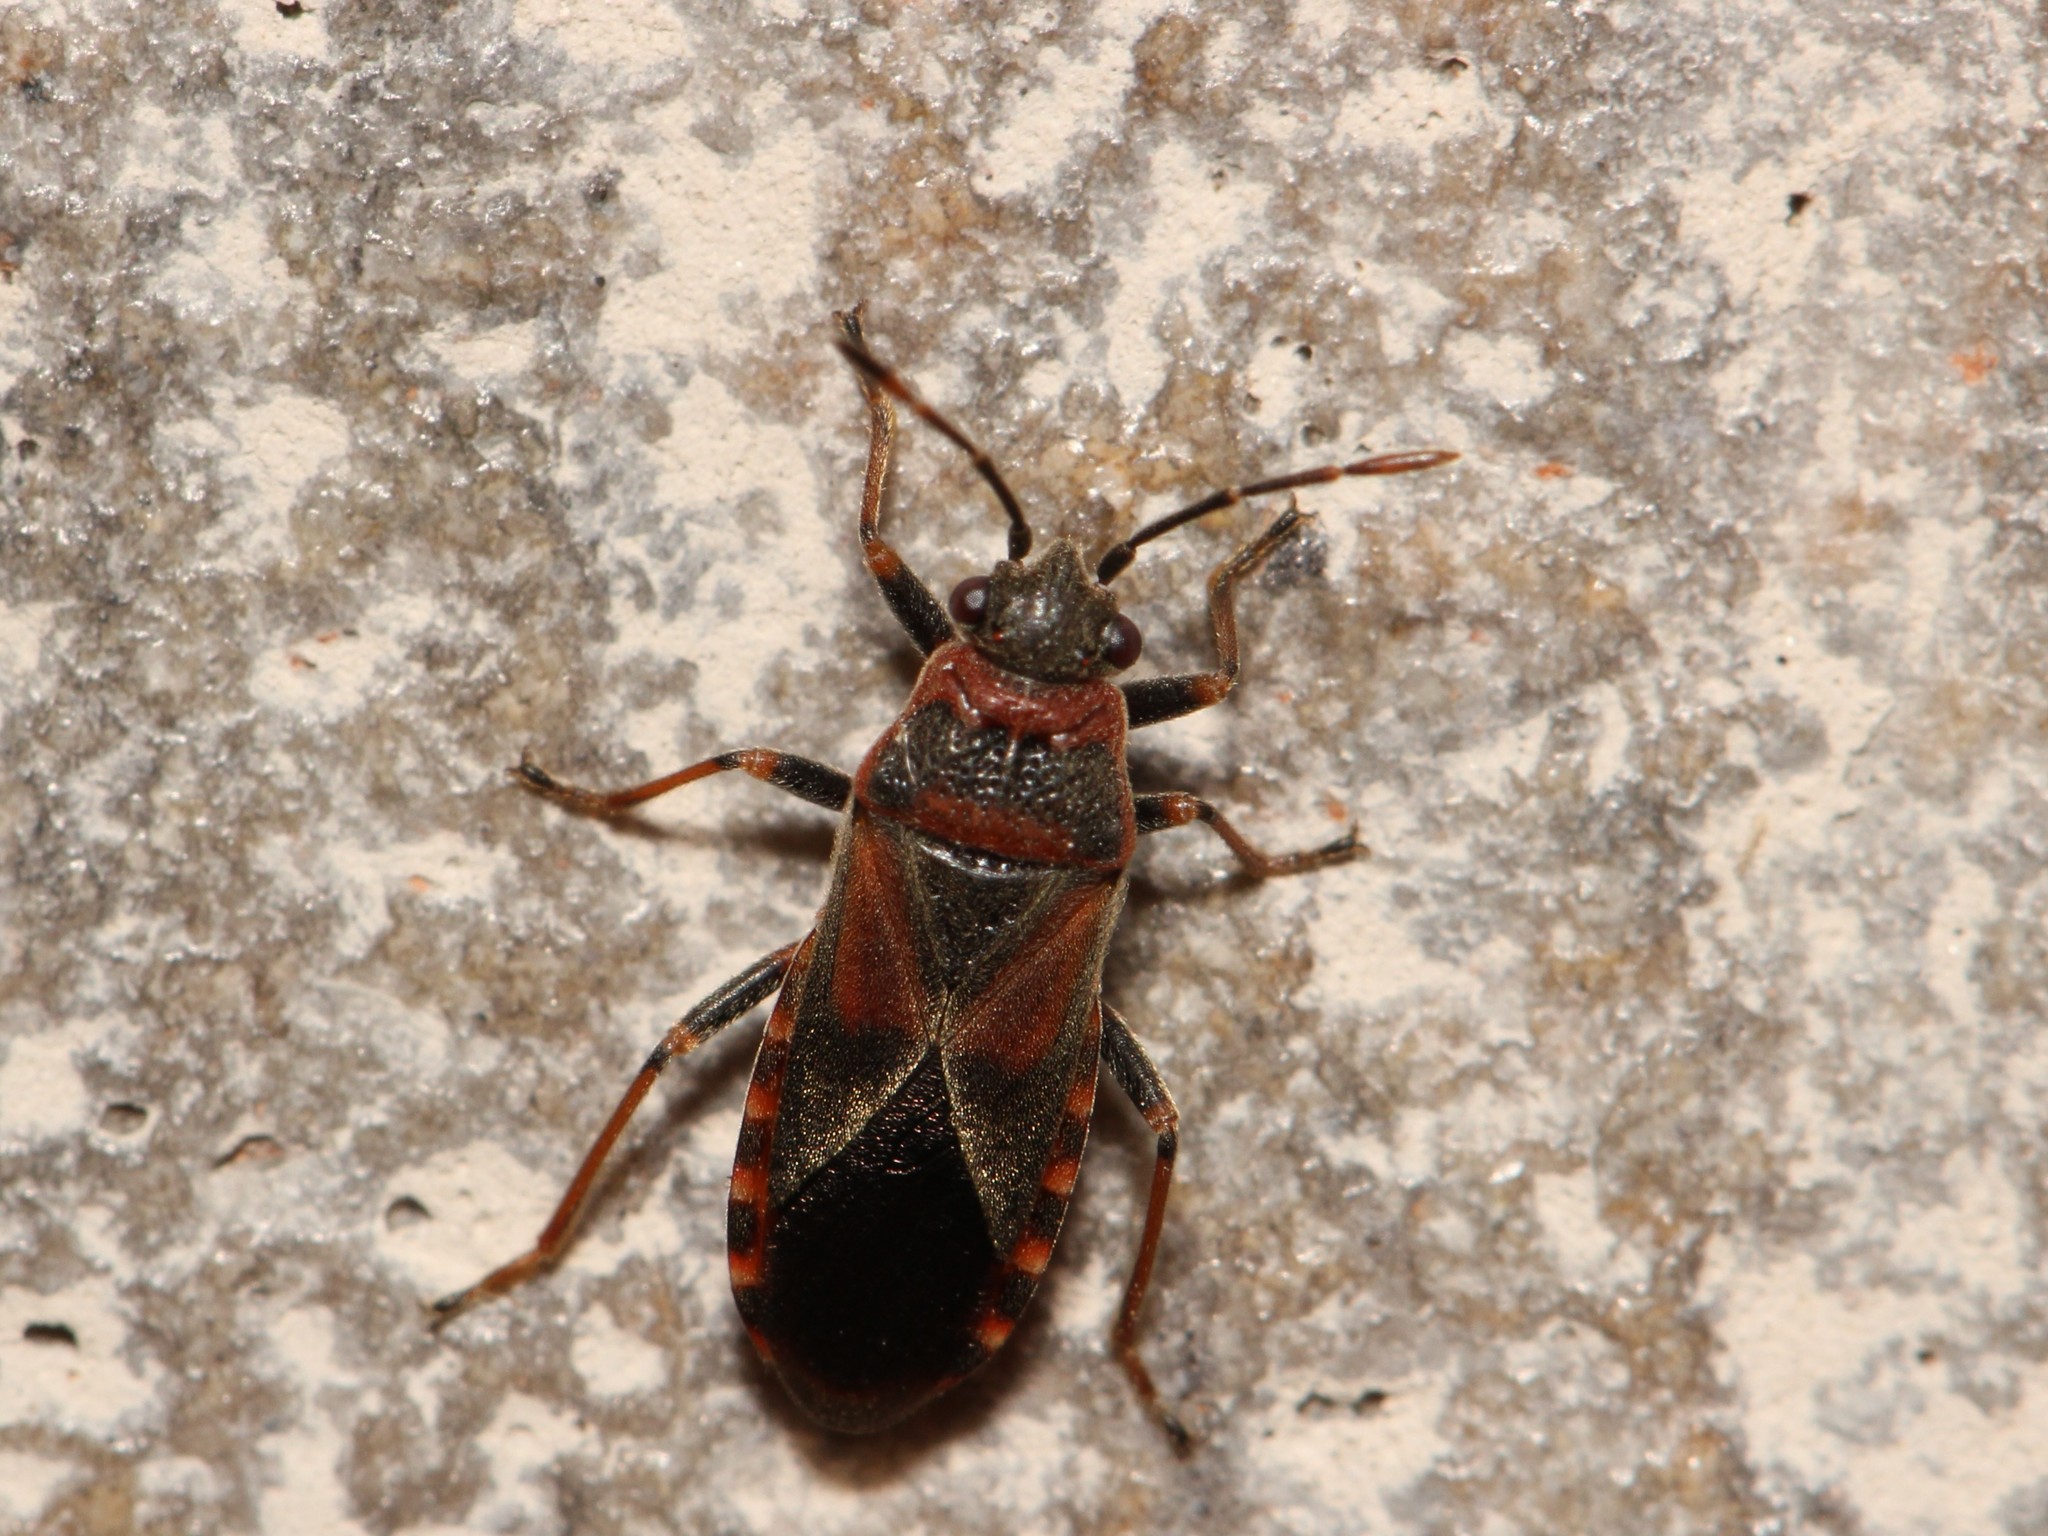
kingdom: Animalia
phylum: Arthropoda
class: Insecta
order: Hemiptera
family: Lygaeidae
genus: Arocatus
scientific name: Arocatus melanocephalus
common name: Lygaeid bug
